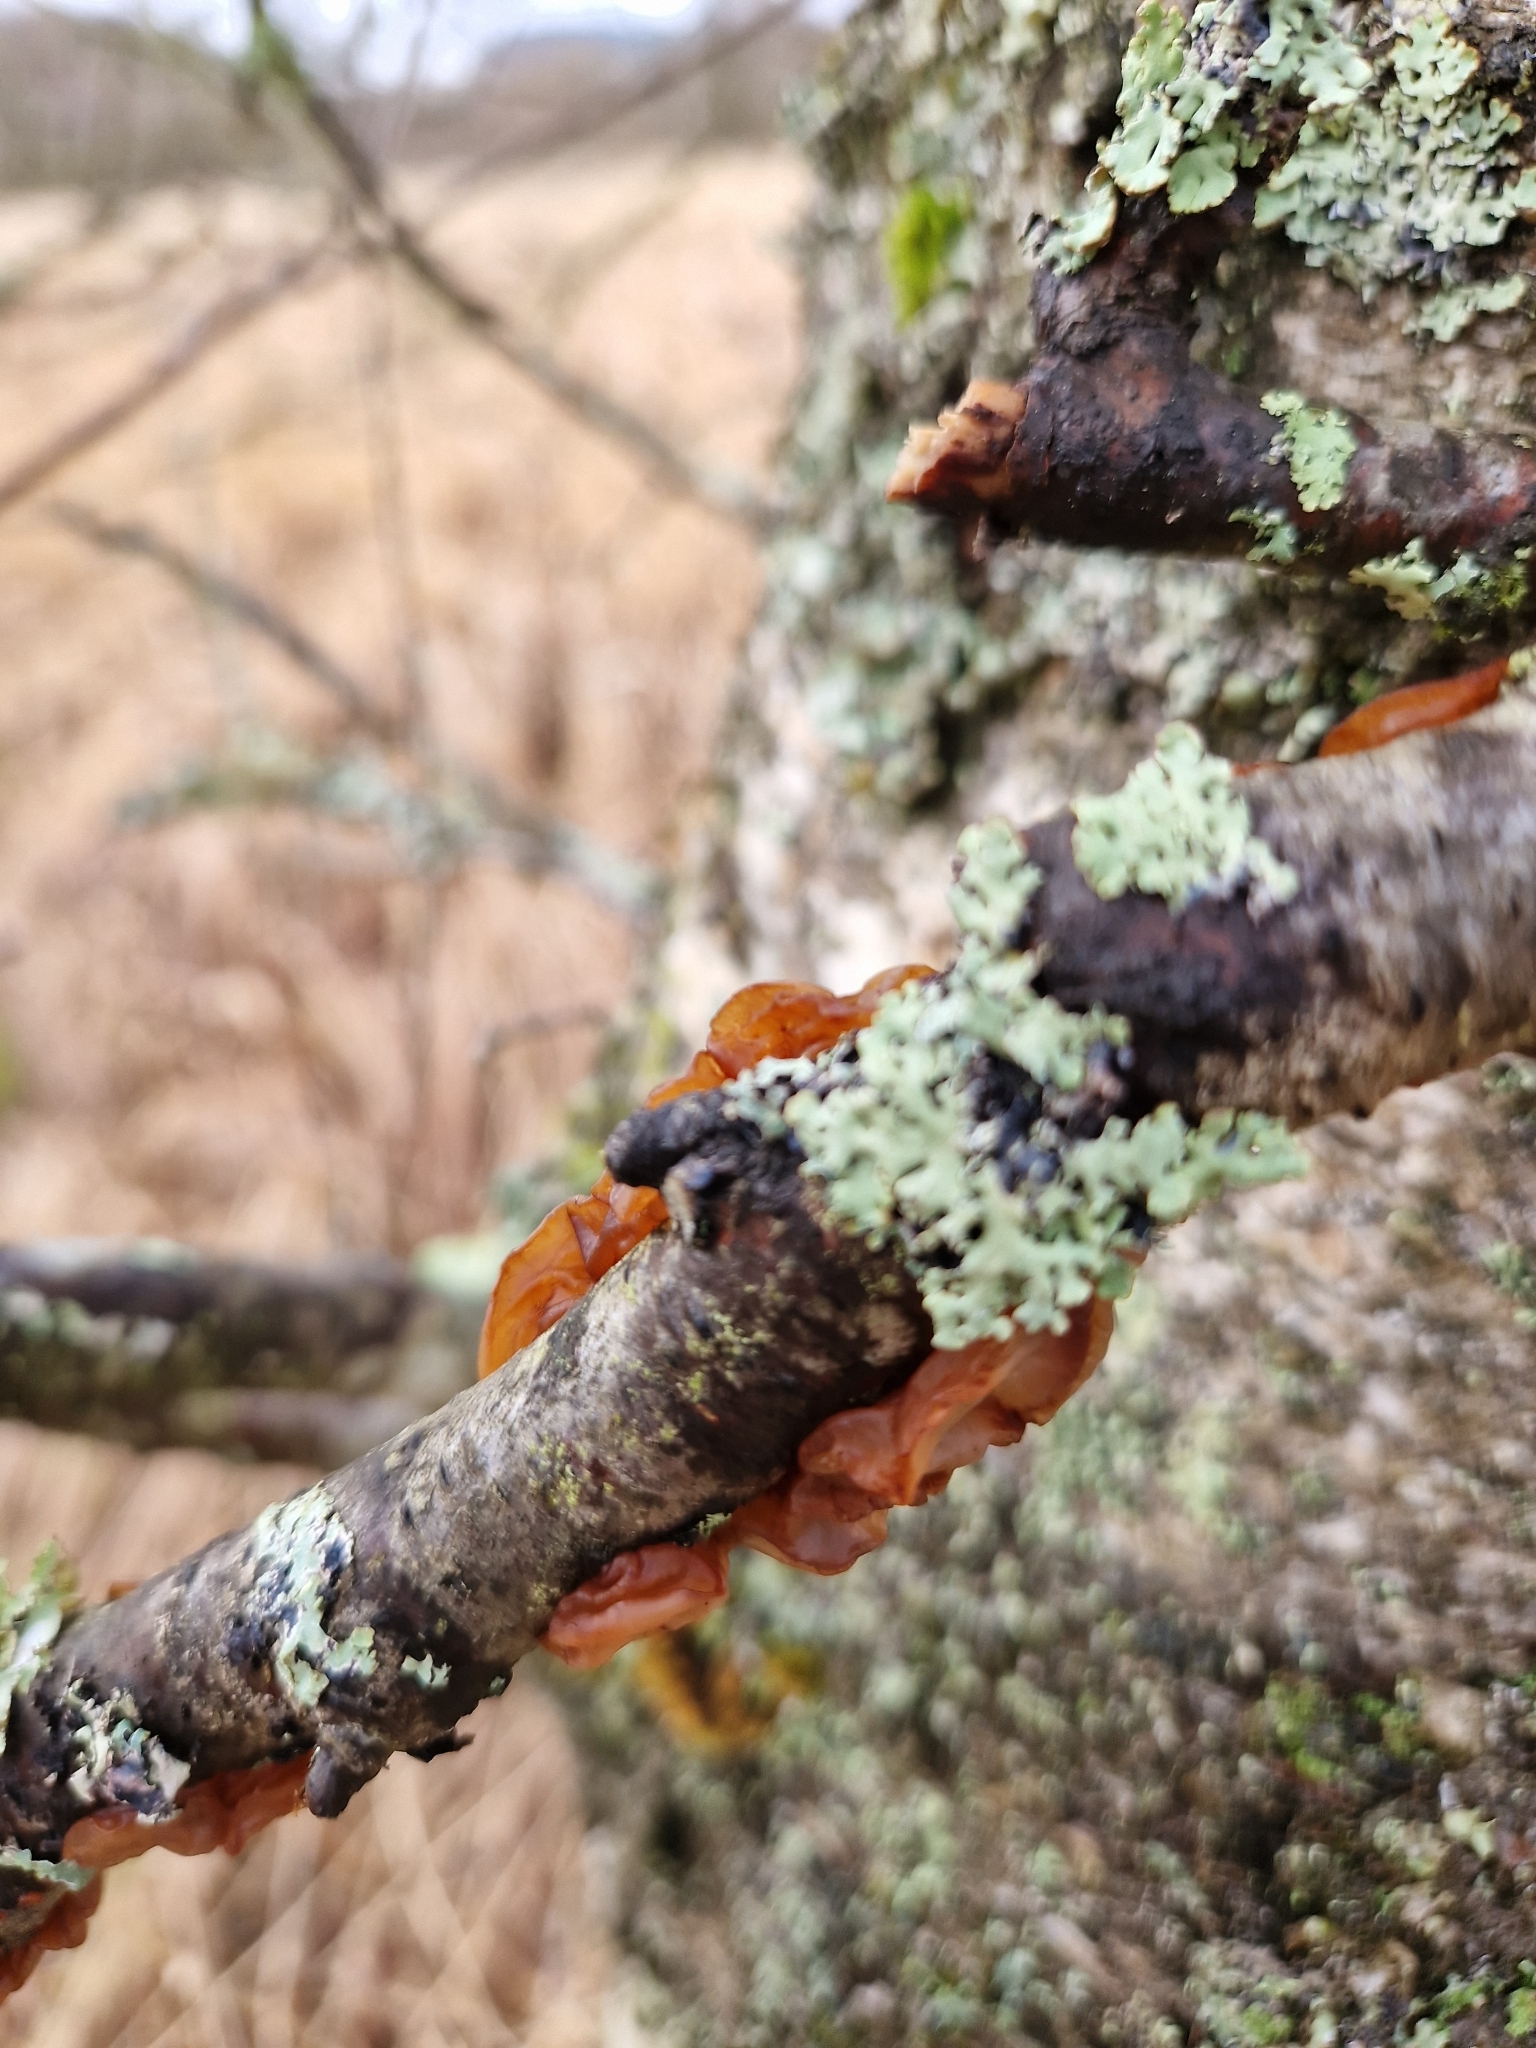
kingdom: Fungi
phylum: Basidiomycota
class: Agaricomycetes
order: Auriculariales
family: Auriculariaceae
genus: Exidia
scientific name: Exidia repanda
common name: Birch jelly
